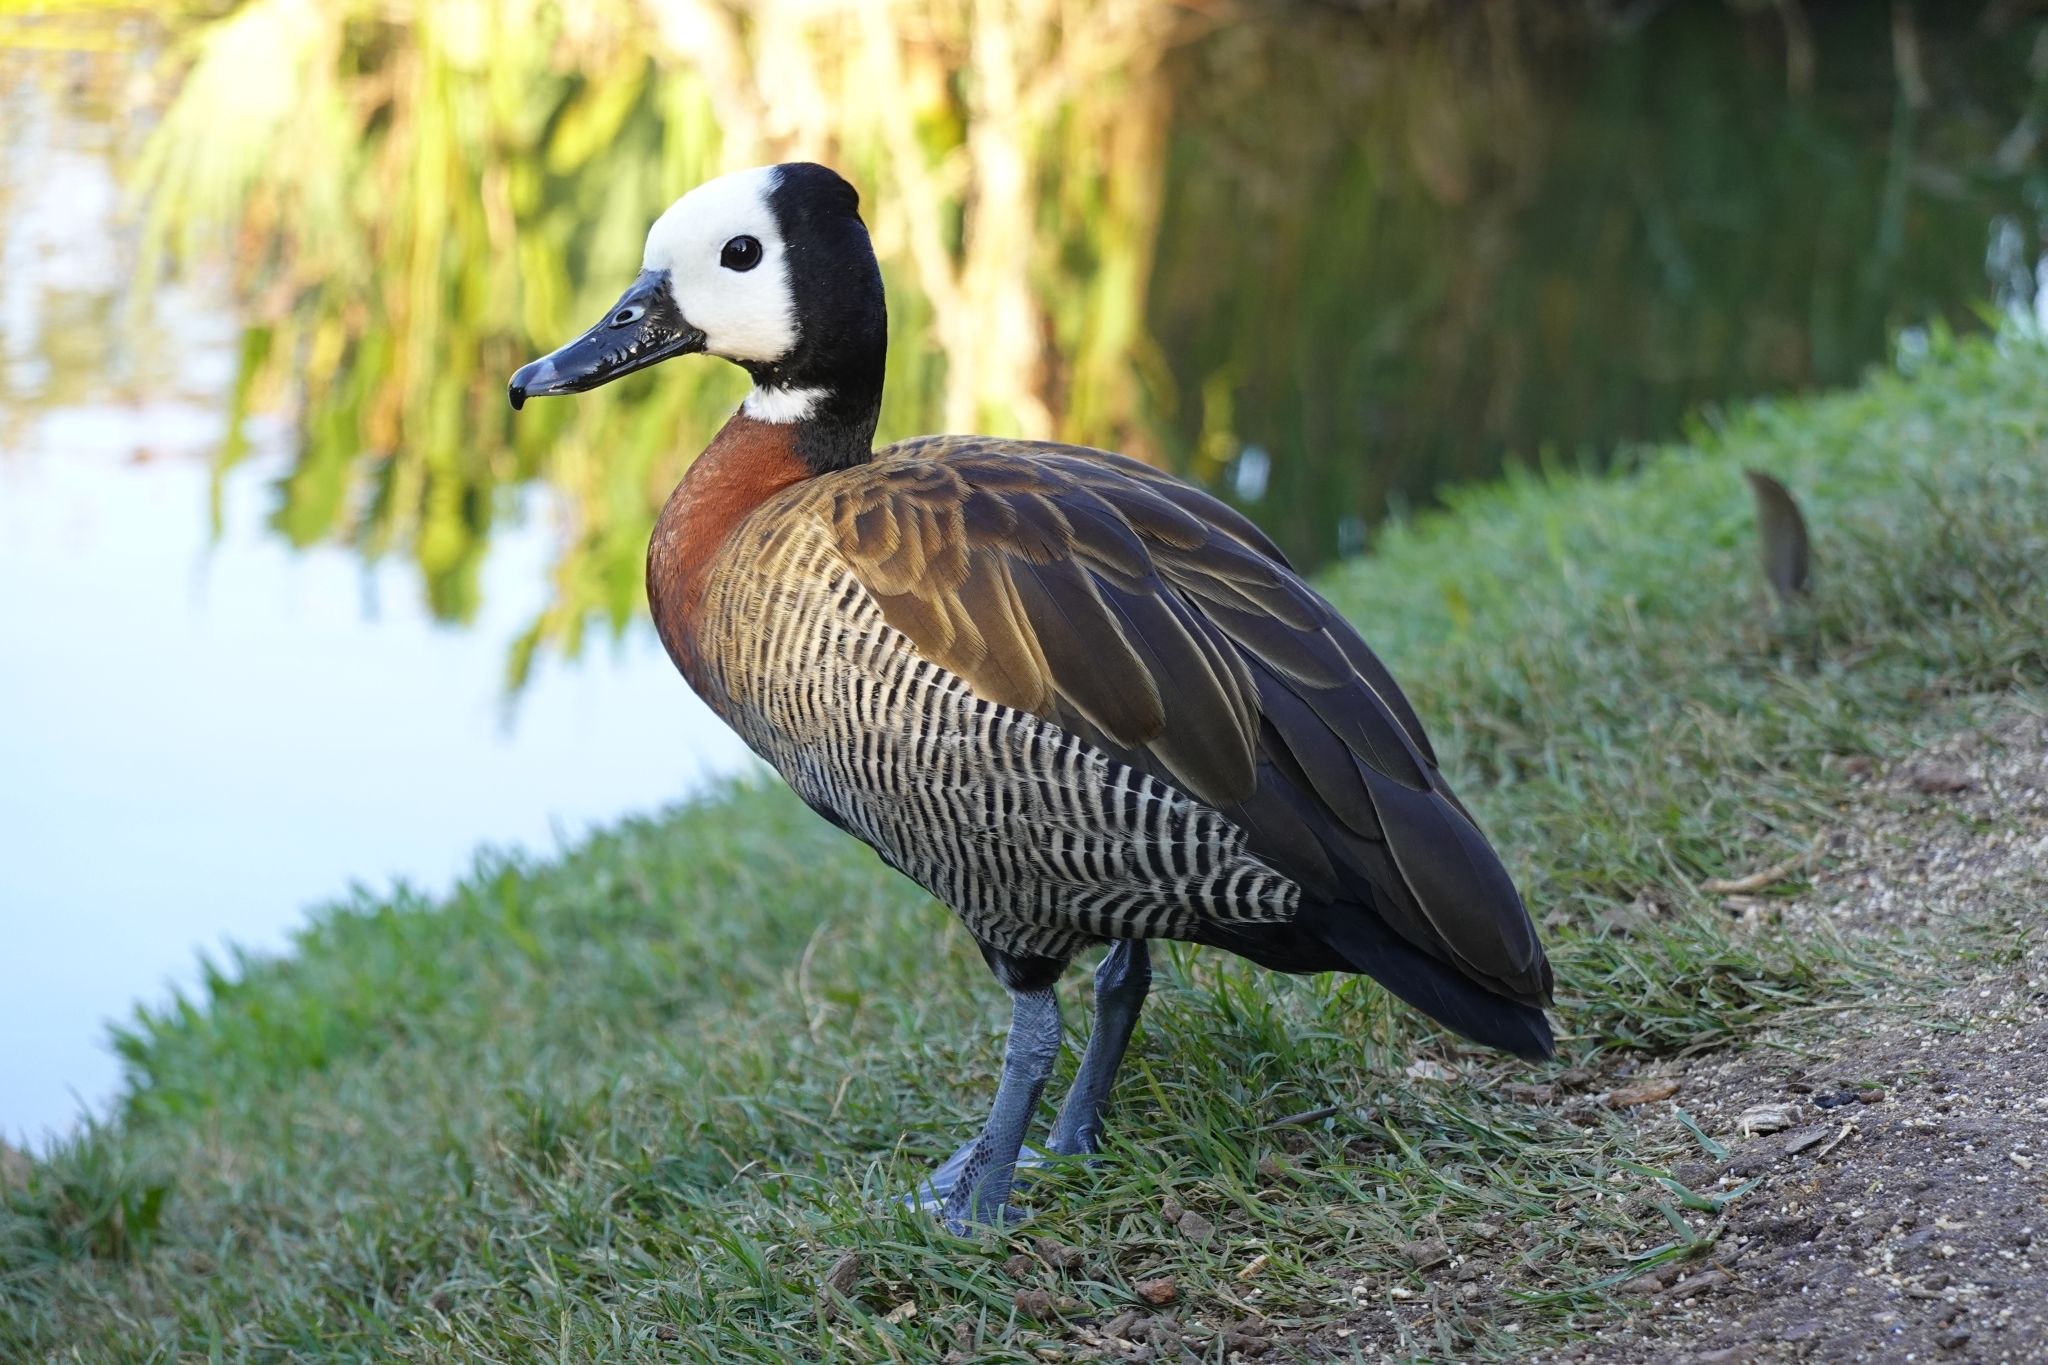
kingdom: Animalia
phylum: Chordata
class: Aves
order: Anseriformes
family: Anatidae
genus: Dendrocygna
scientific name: Dendrocygna viduata
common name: White-faced whistling duck
